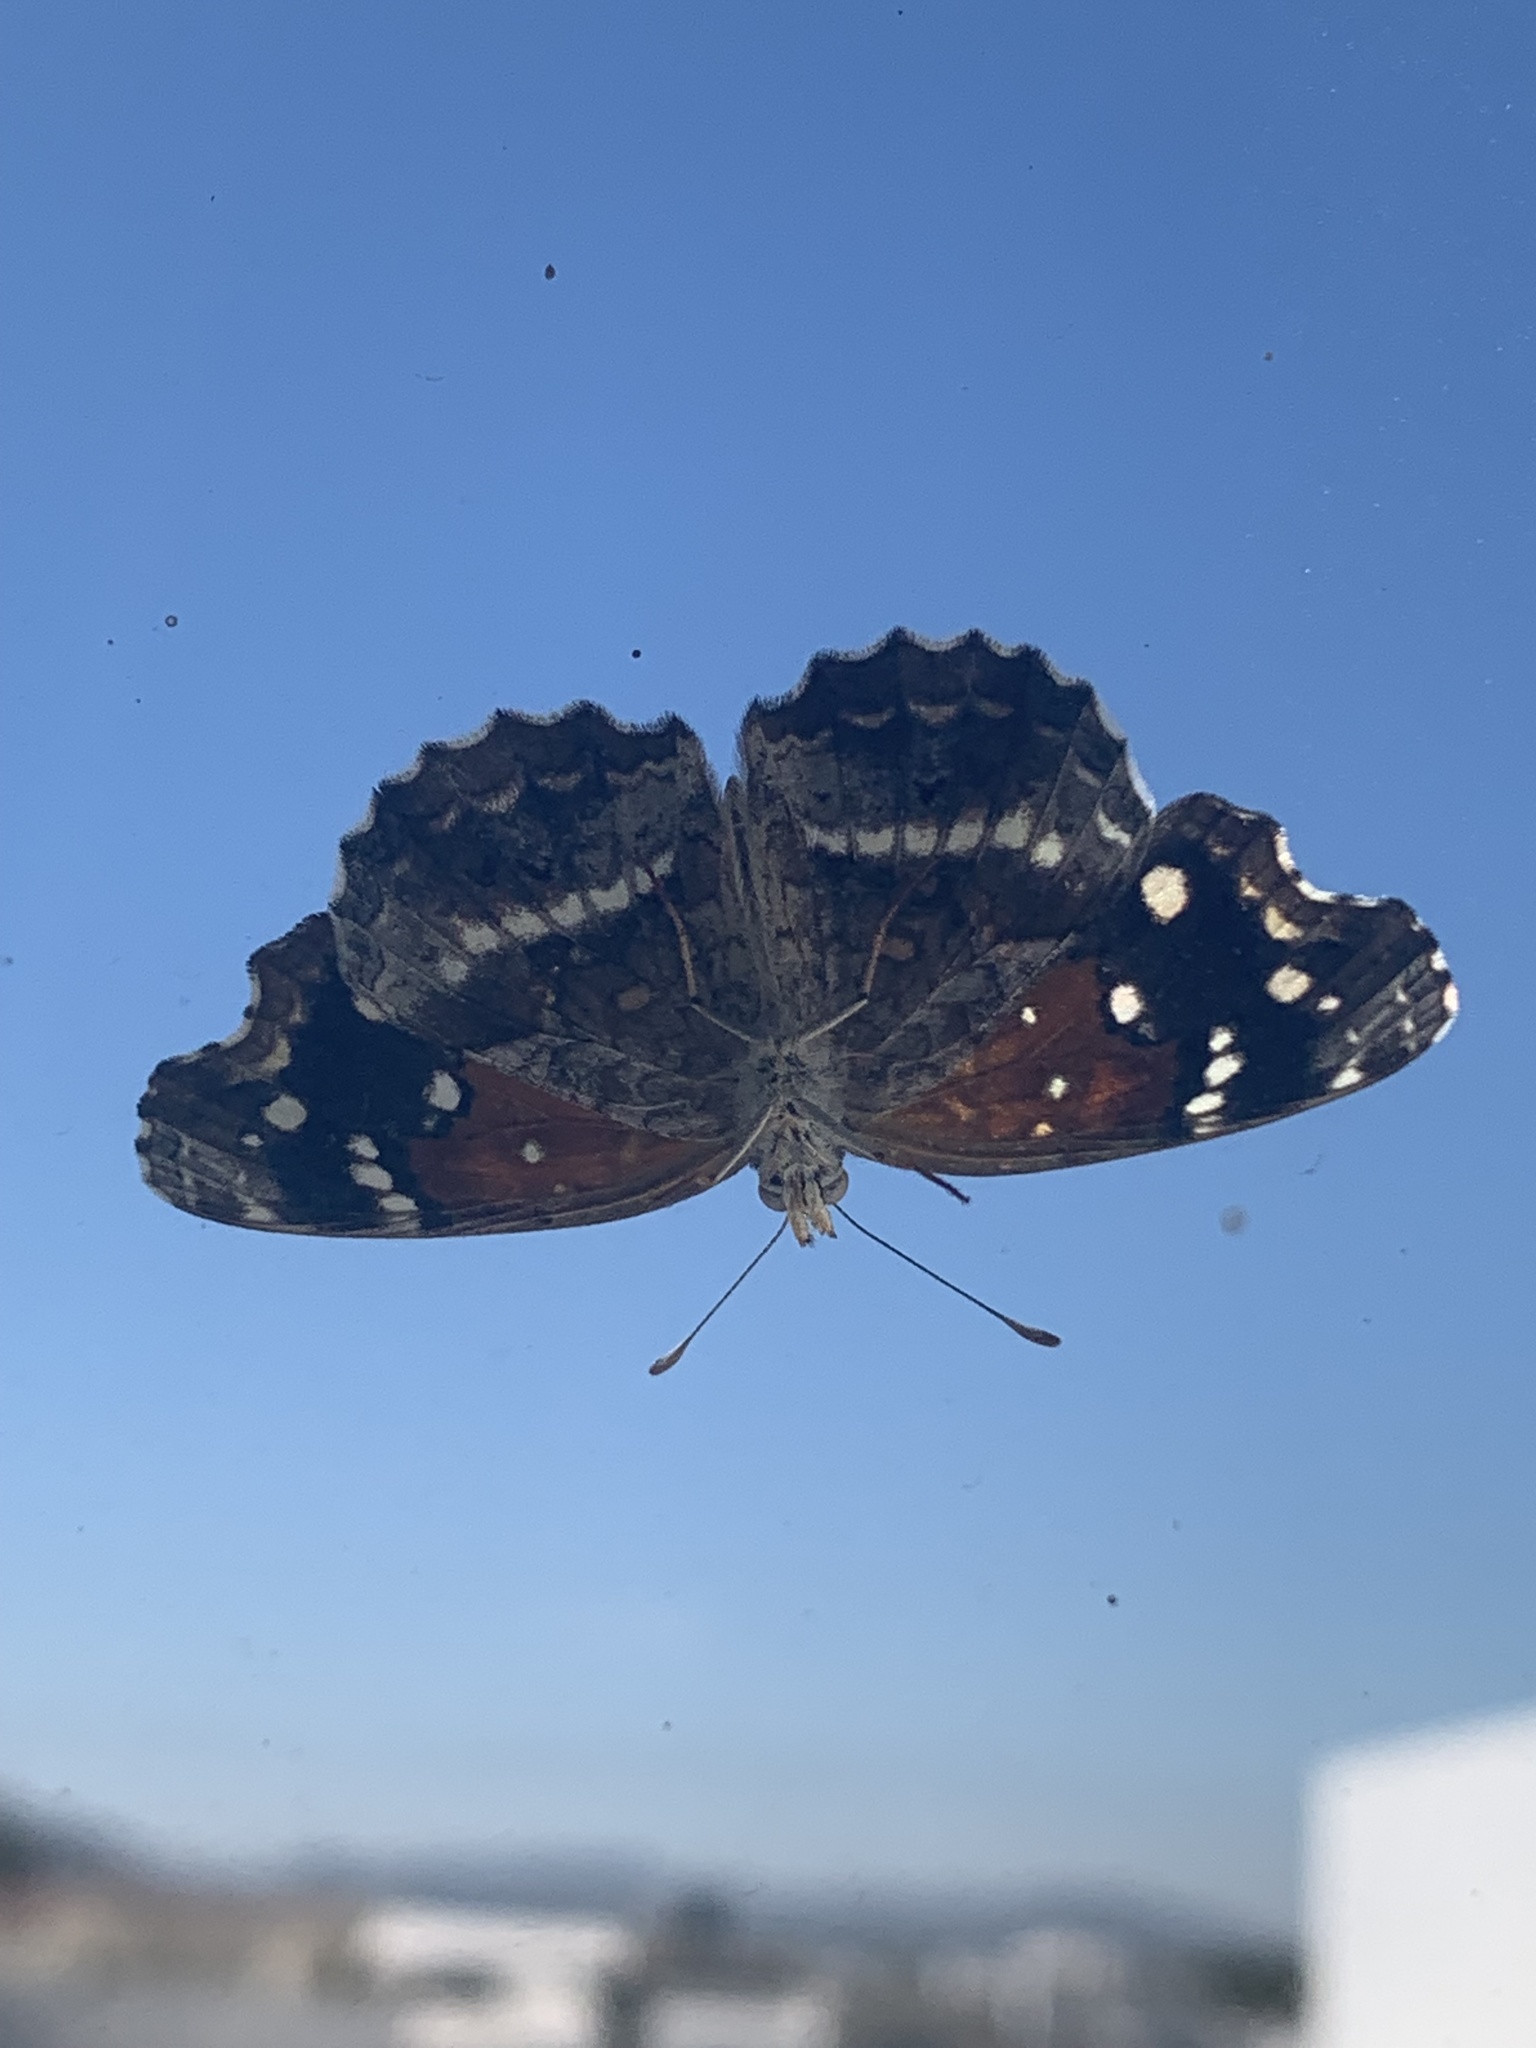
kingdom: Animalia
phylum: Arthropoda
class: Insecta
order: Lepidoptera
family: Nymphalidae
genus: Anthanassa
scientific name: Anthanassa texana
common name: Texan crescent
